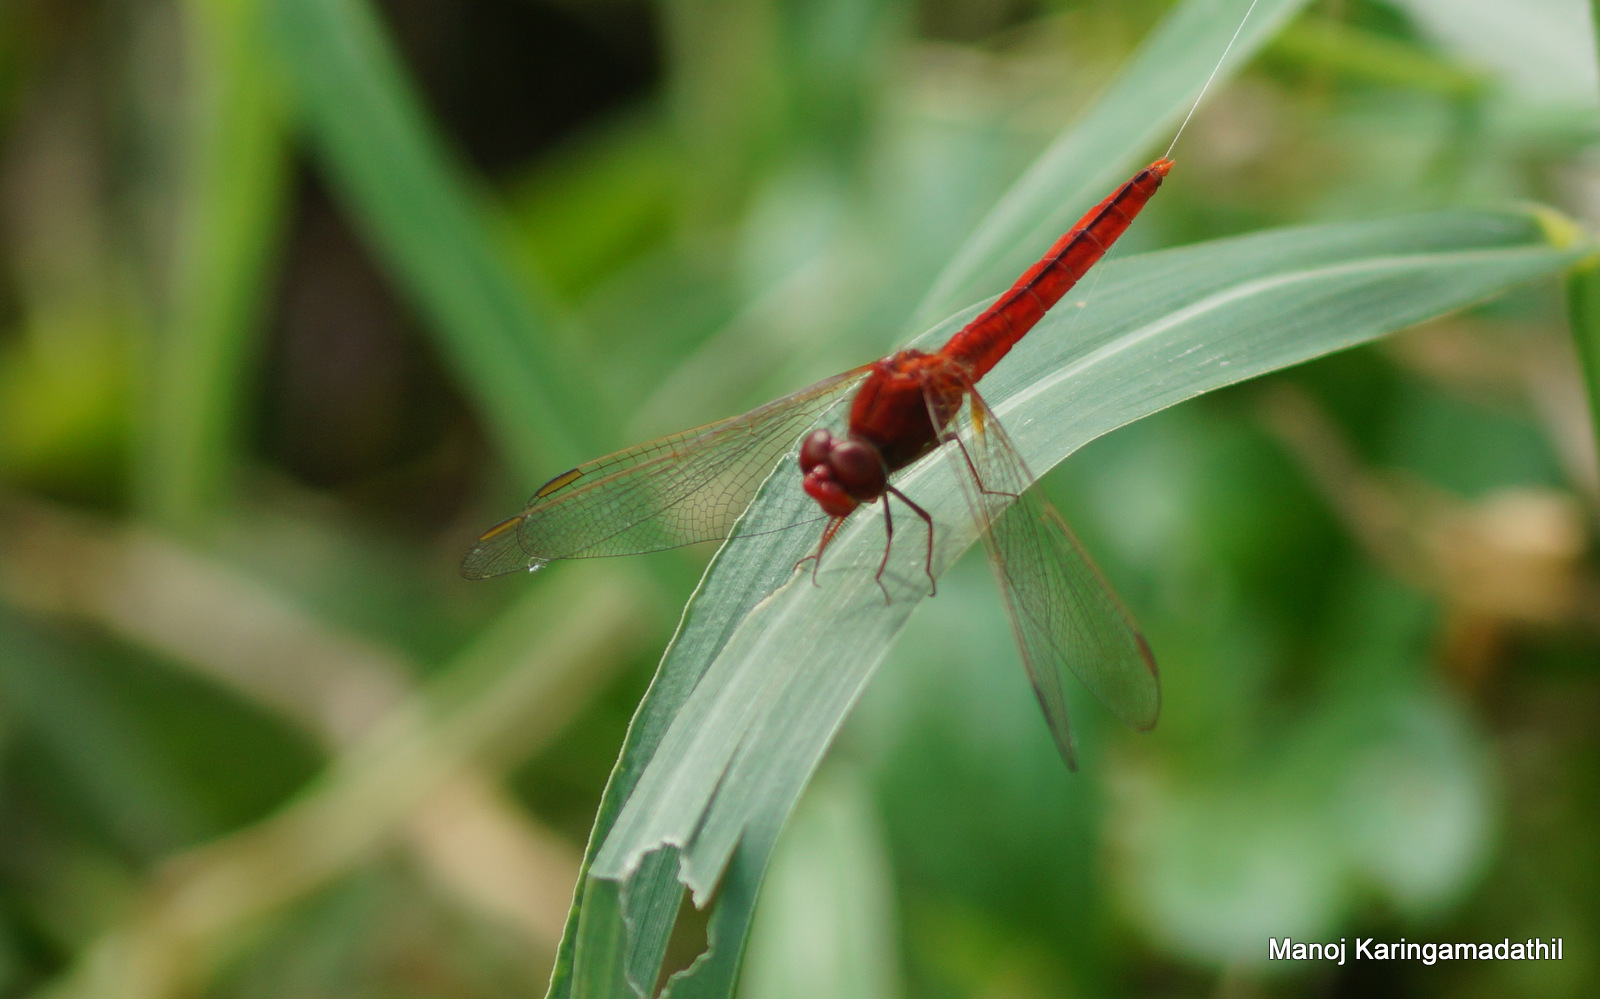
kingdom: Animalia
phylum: Arthropoda
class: Insecta
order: Odonata
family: Libellulidae
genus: Crocothemis
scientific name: Crocothemis servilia
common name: Scarlet skimmer
